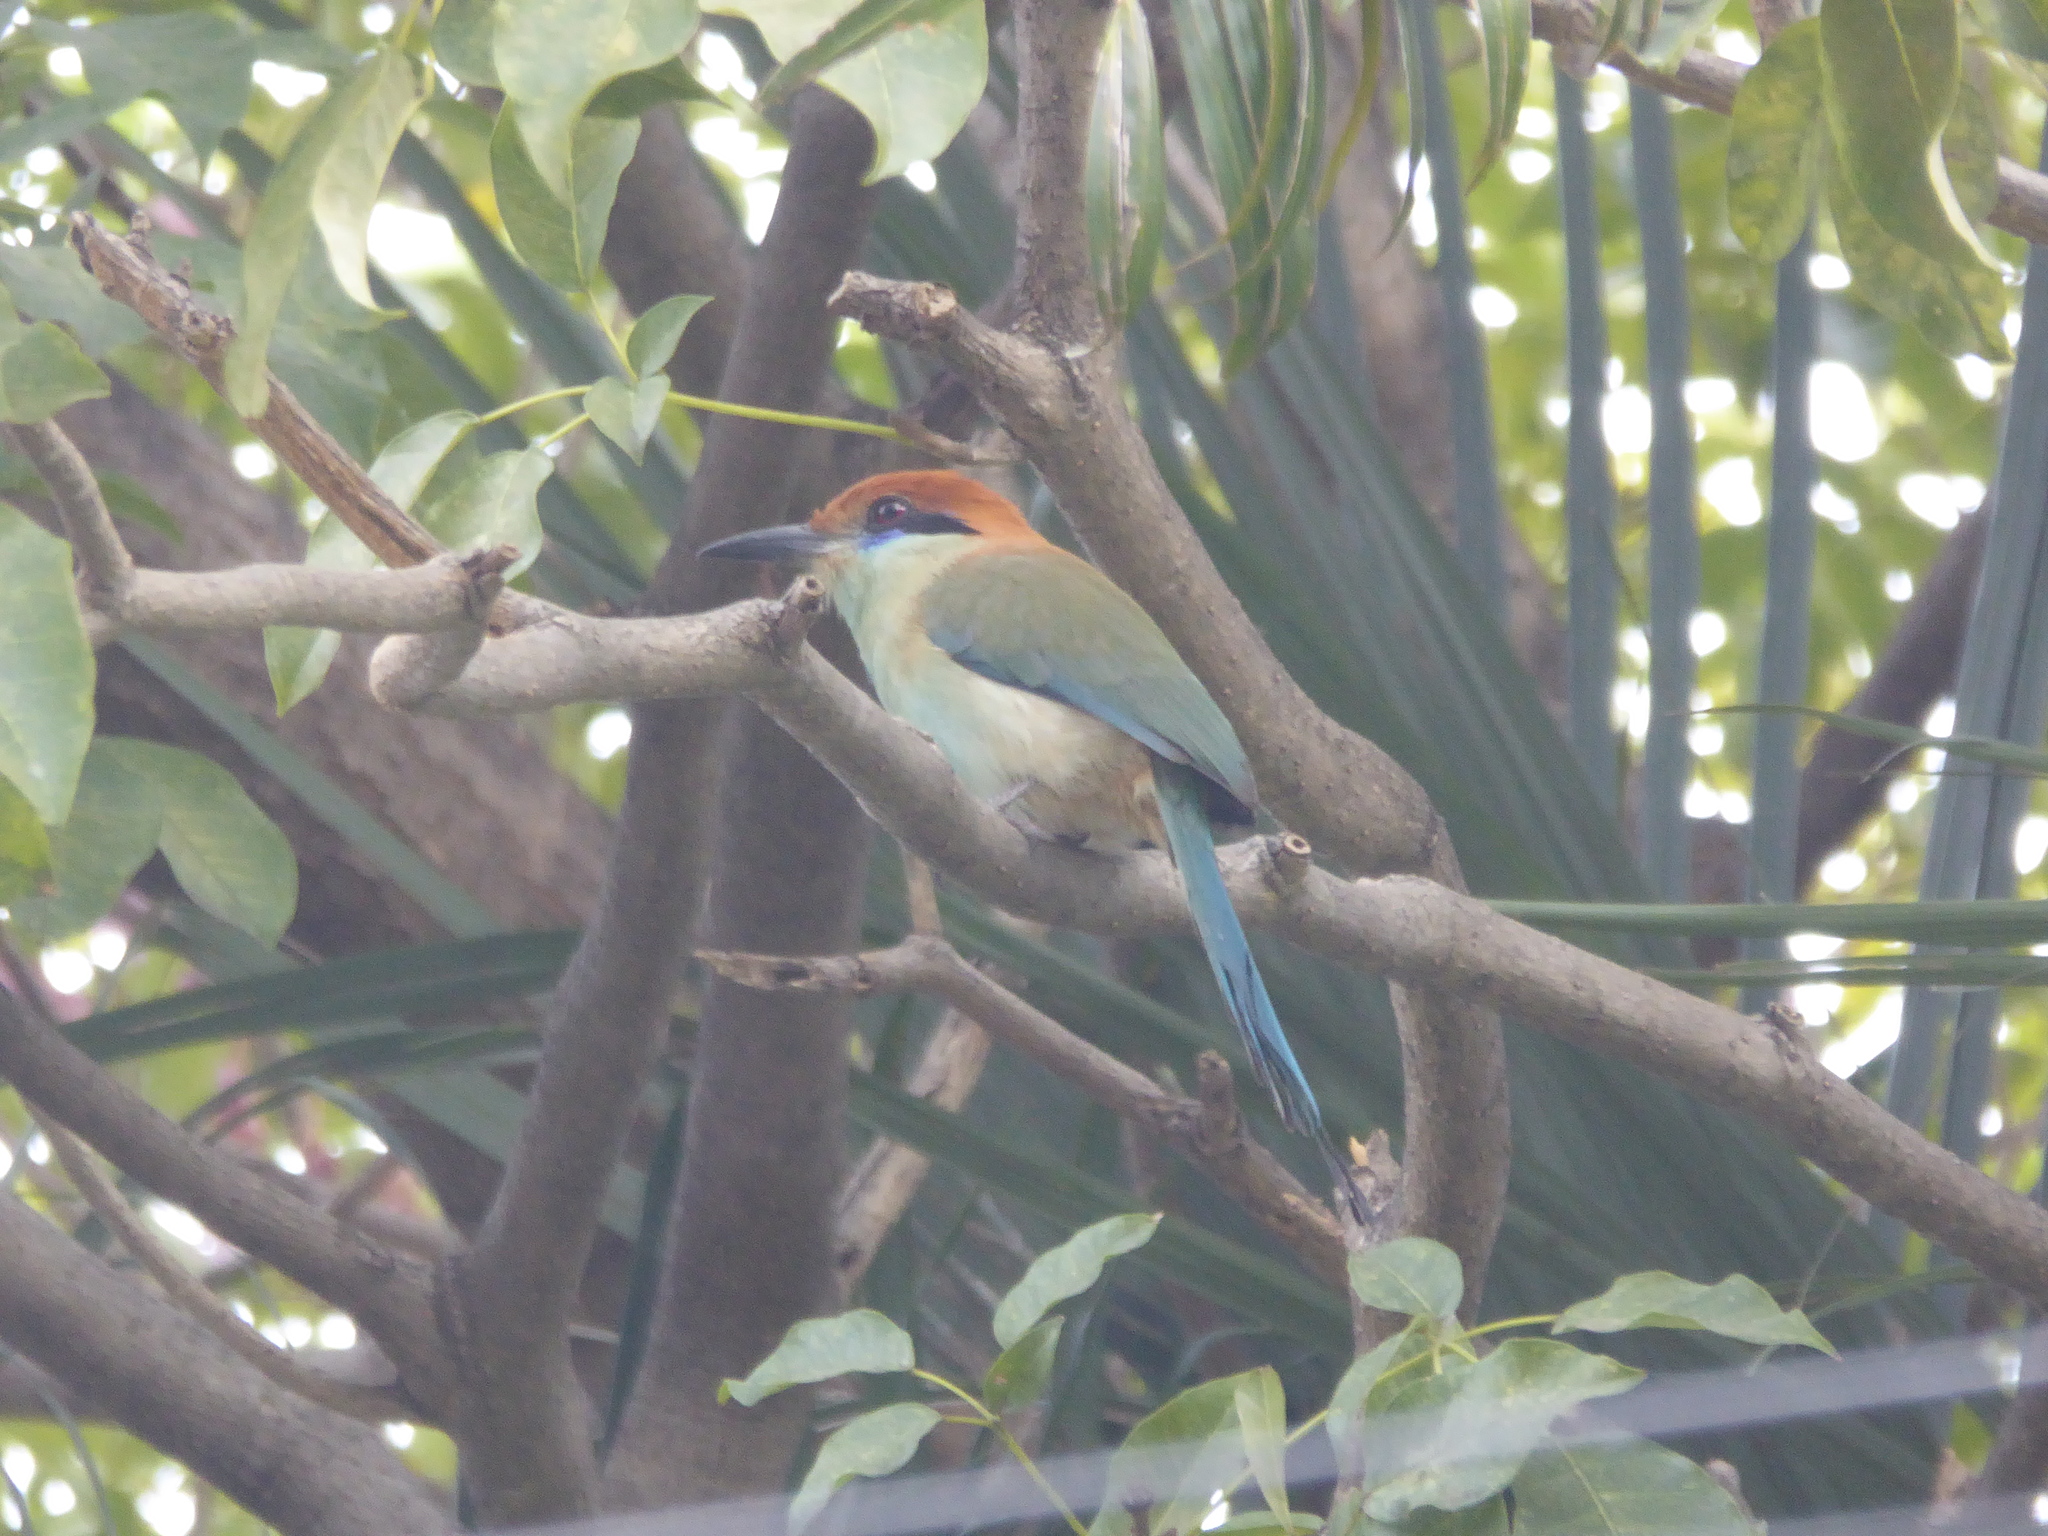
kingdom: Animalia
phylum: Chordata
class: Aves
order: Coraciiformes
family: Momotidae
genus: Momotus
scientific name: Momotus mexicanus
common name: Russet-crowned motmot
